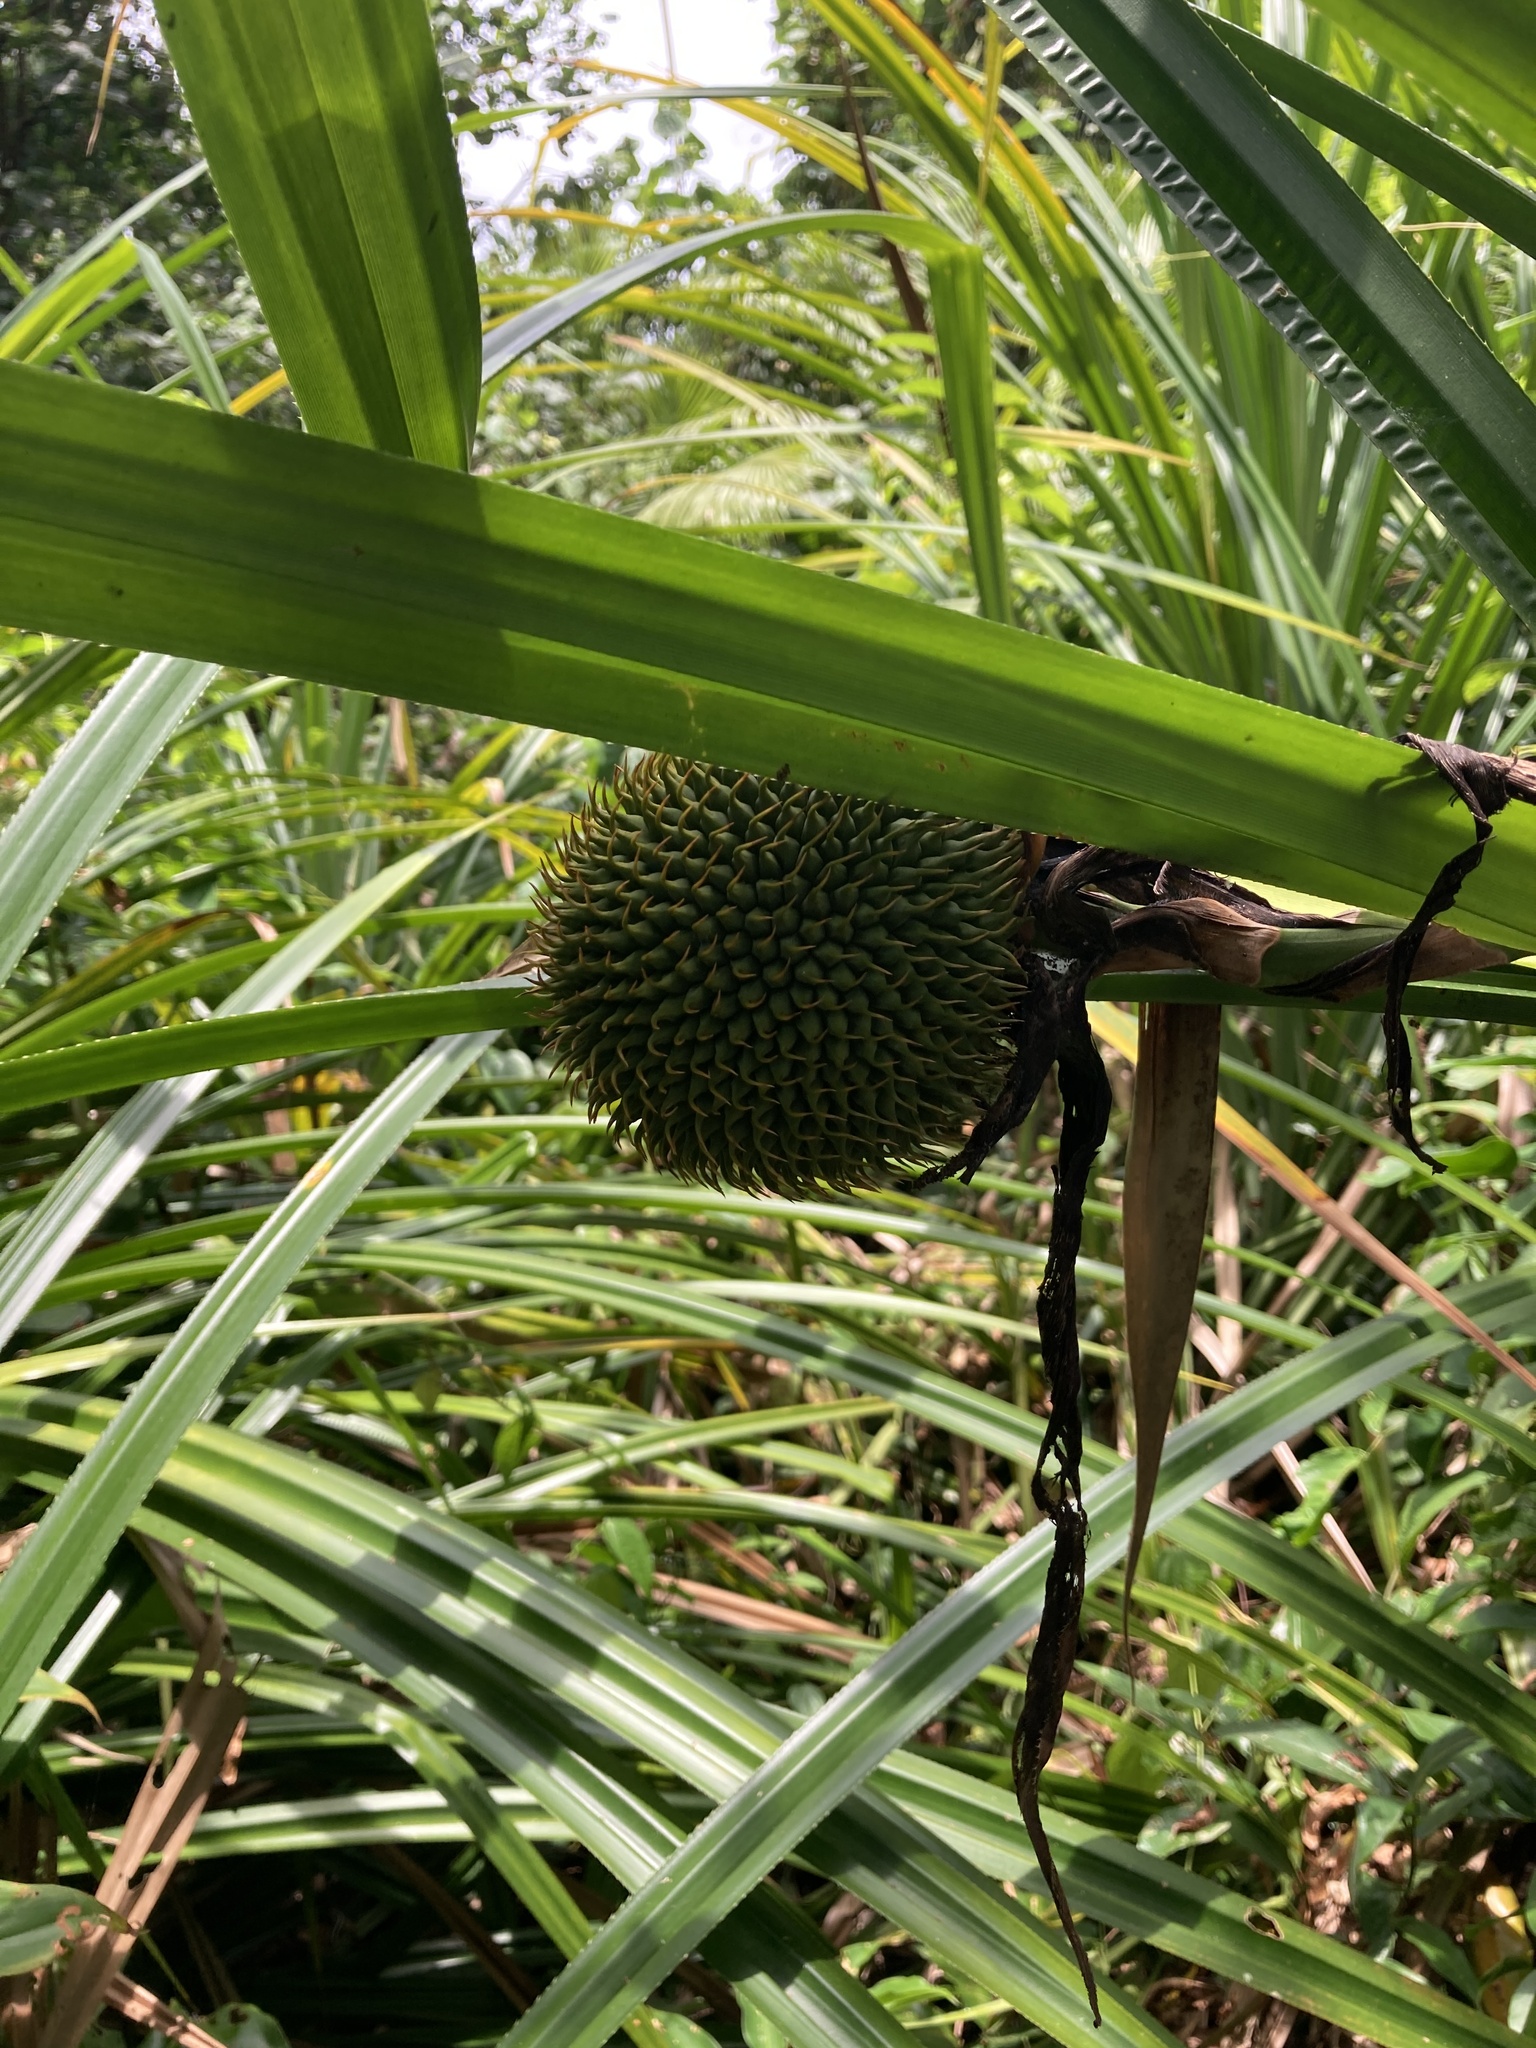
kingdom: Plantae
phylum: Tracheophyta
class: Liliopsida
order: Pandanales
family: Pandanaceae
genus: Benstonea
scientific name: Benstonea monticola
